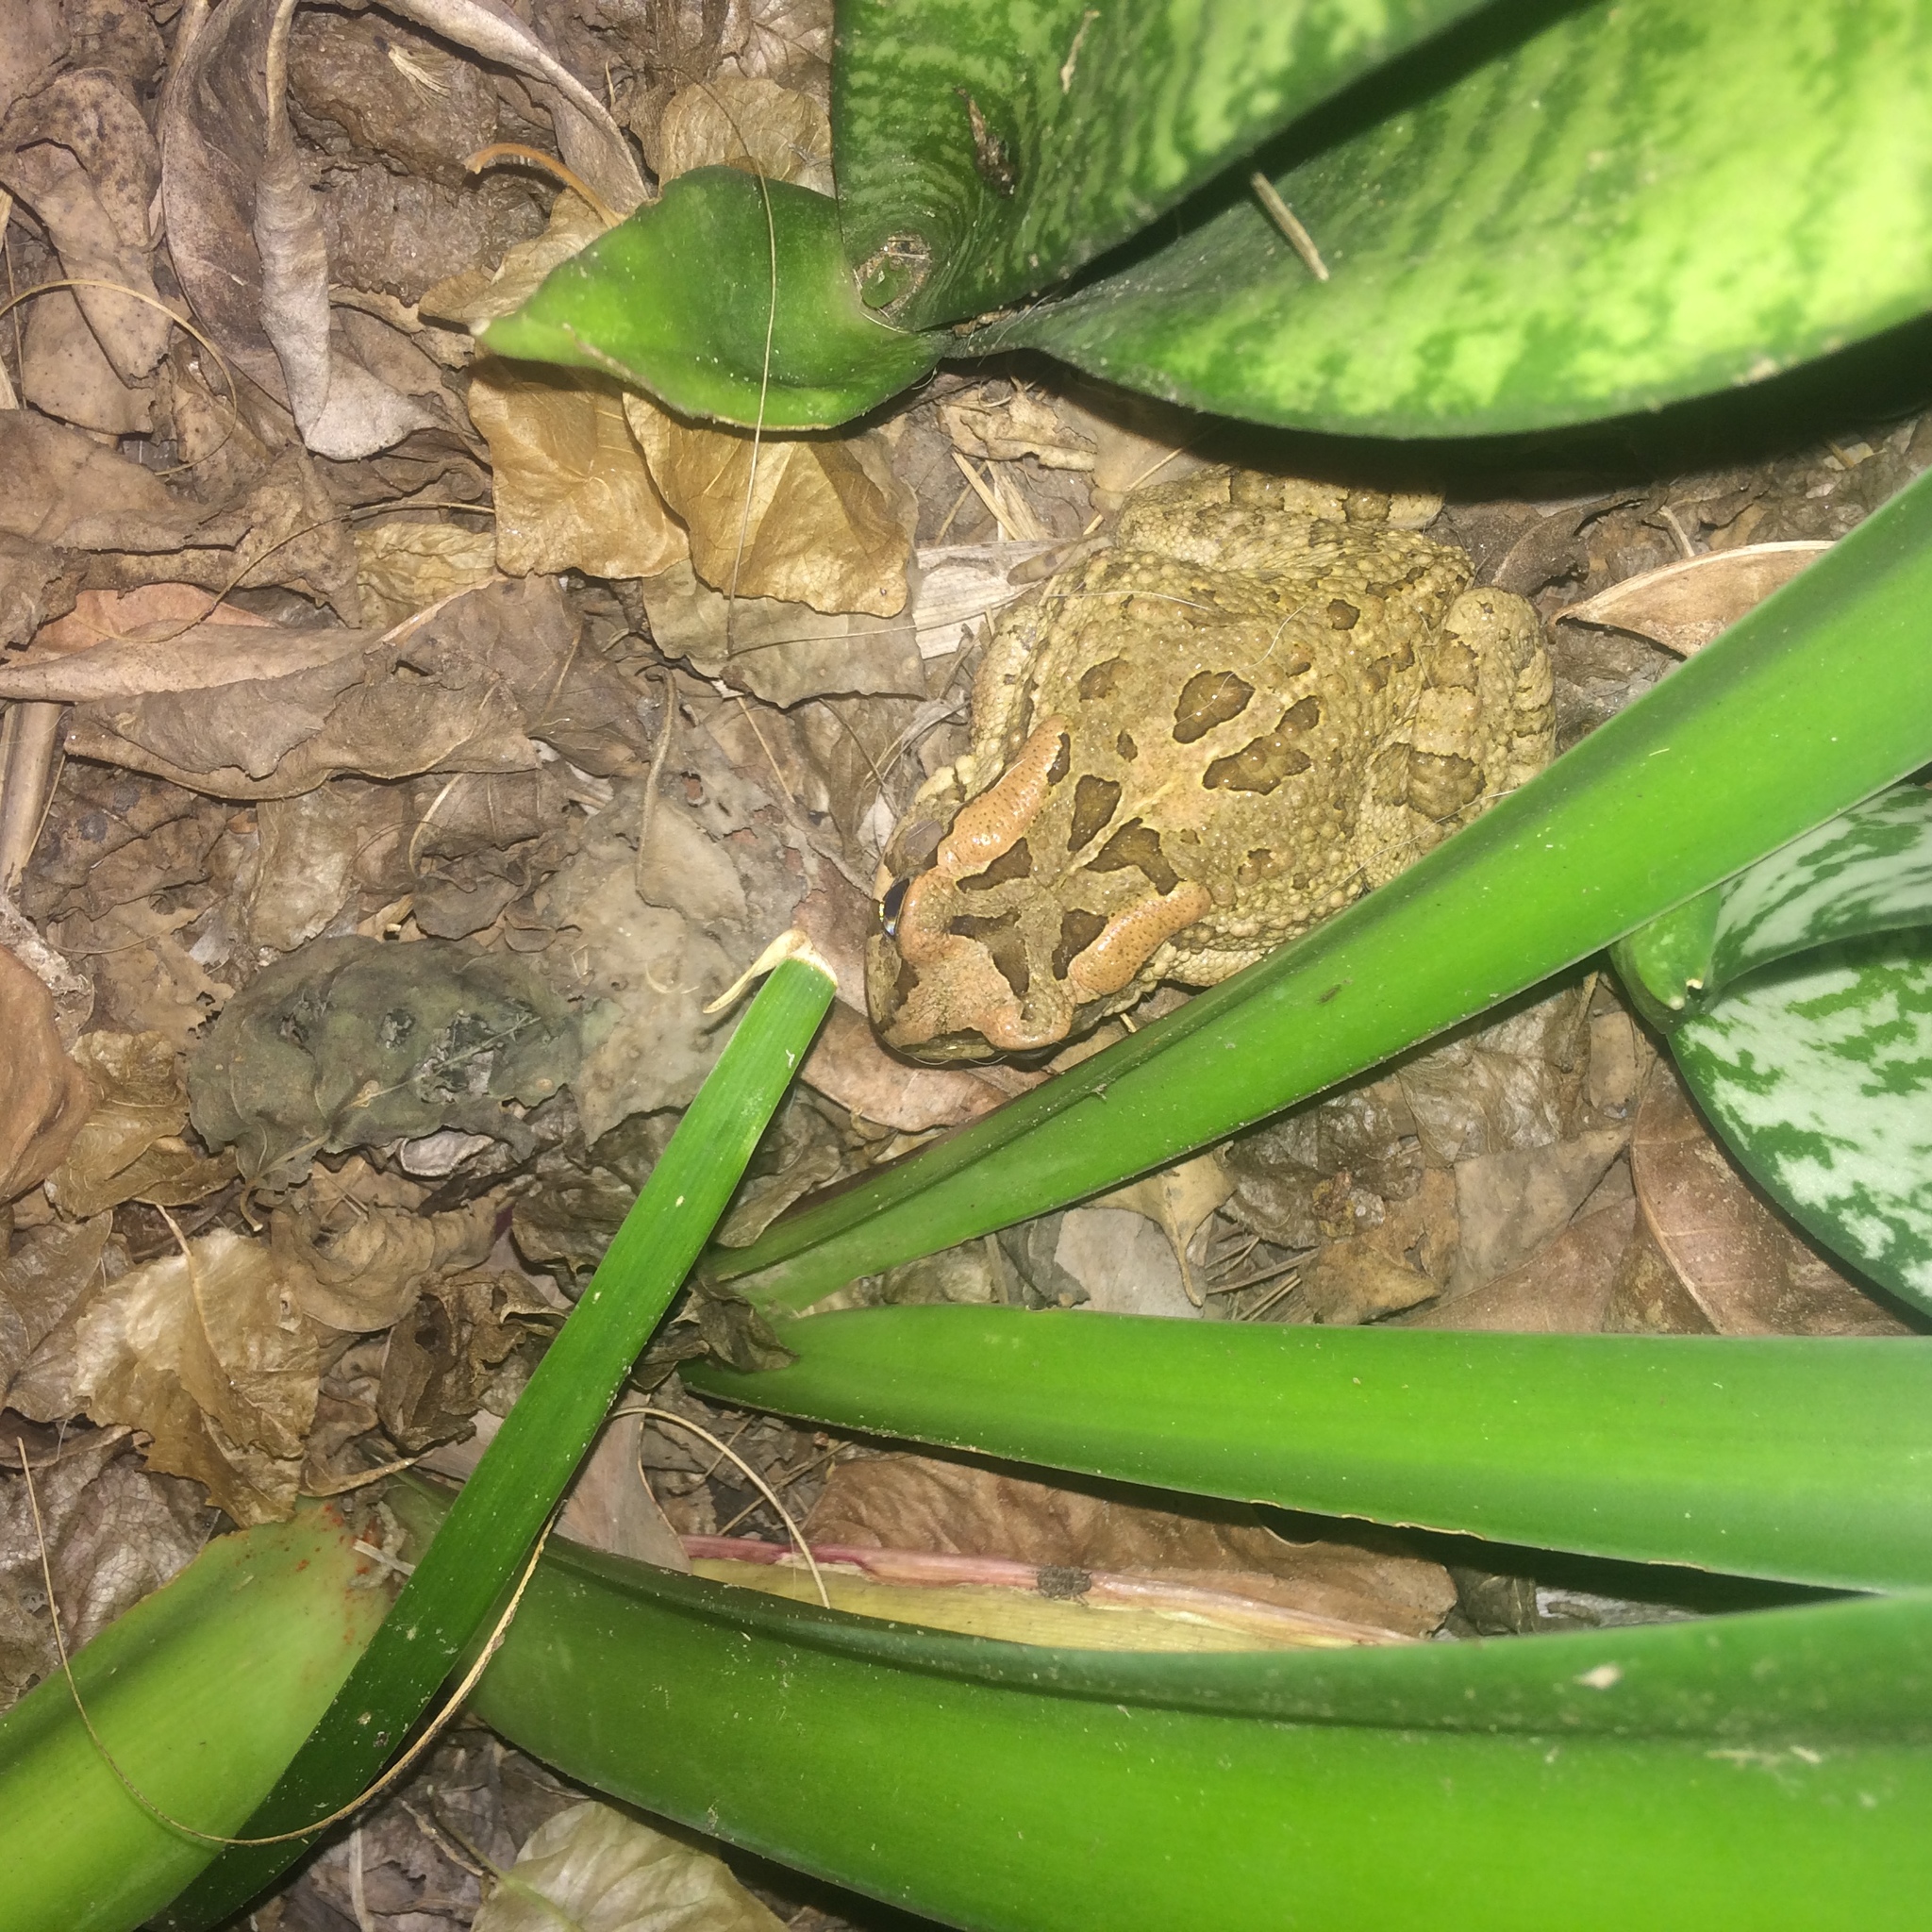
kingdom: Animalia
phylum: Chordata
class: Amphibia
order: Anura
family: Bufonidae
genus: Sclerophrys
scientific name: Sclerophrys capensis
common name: Ranger’s toad
